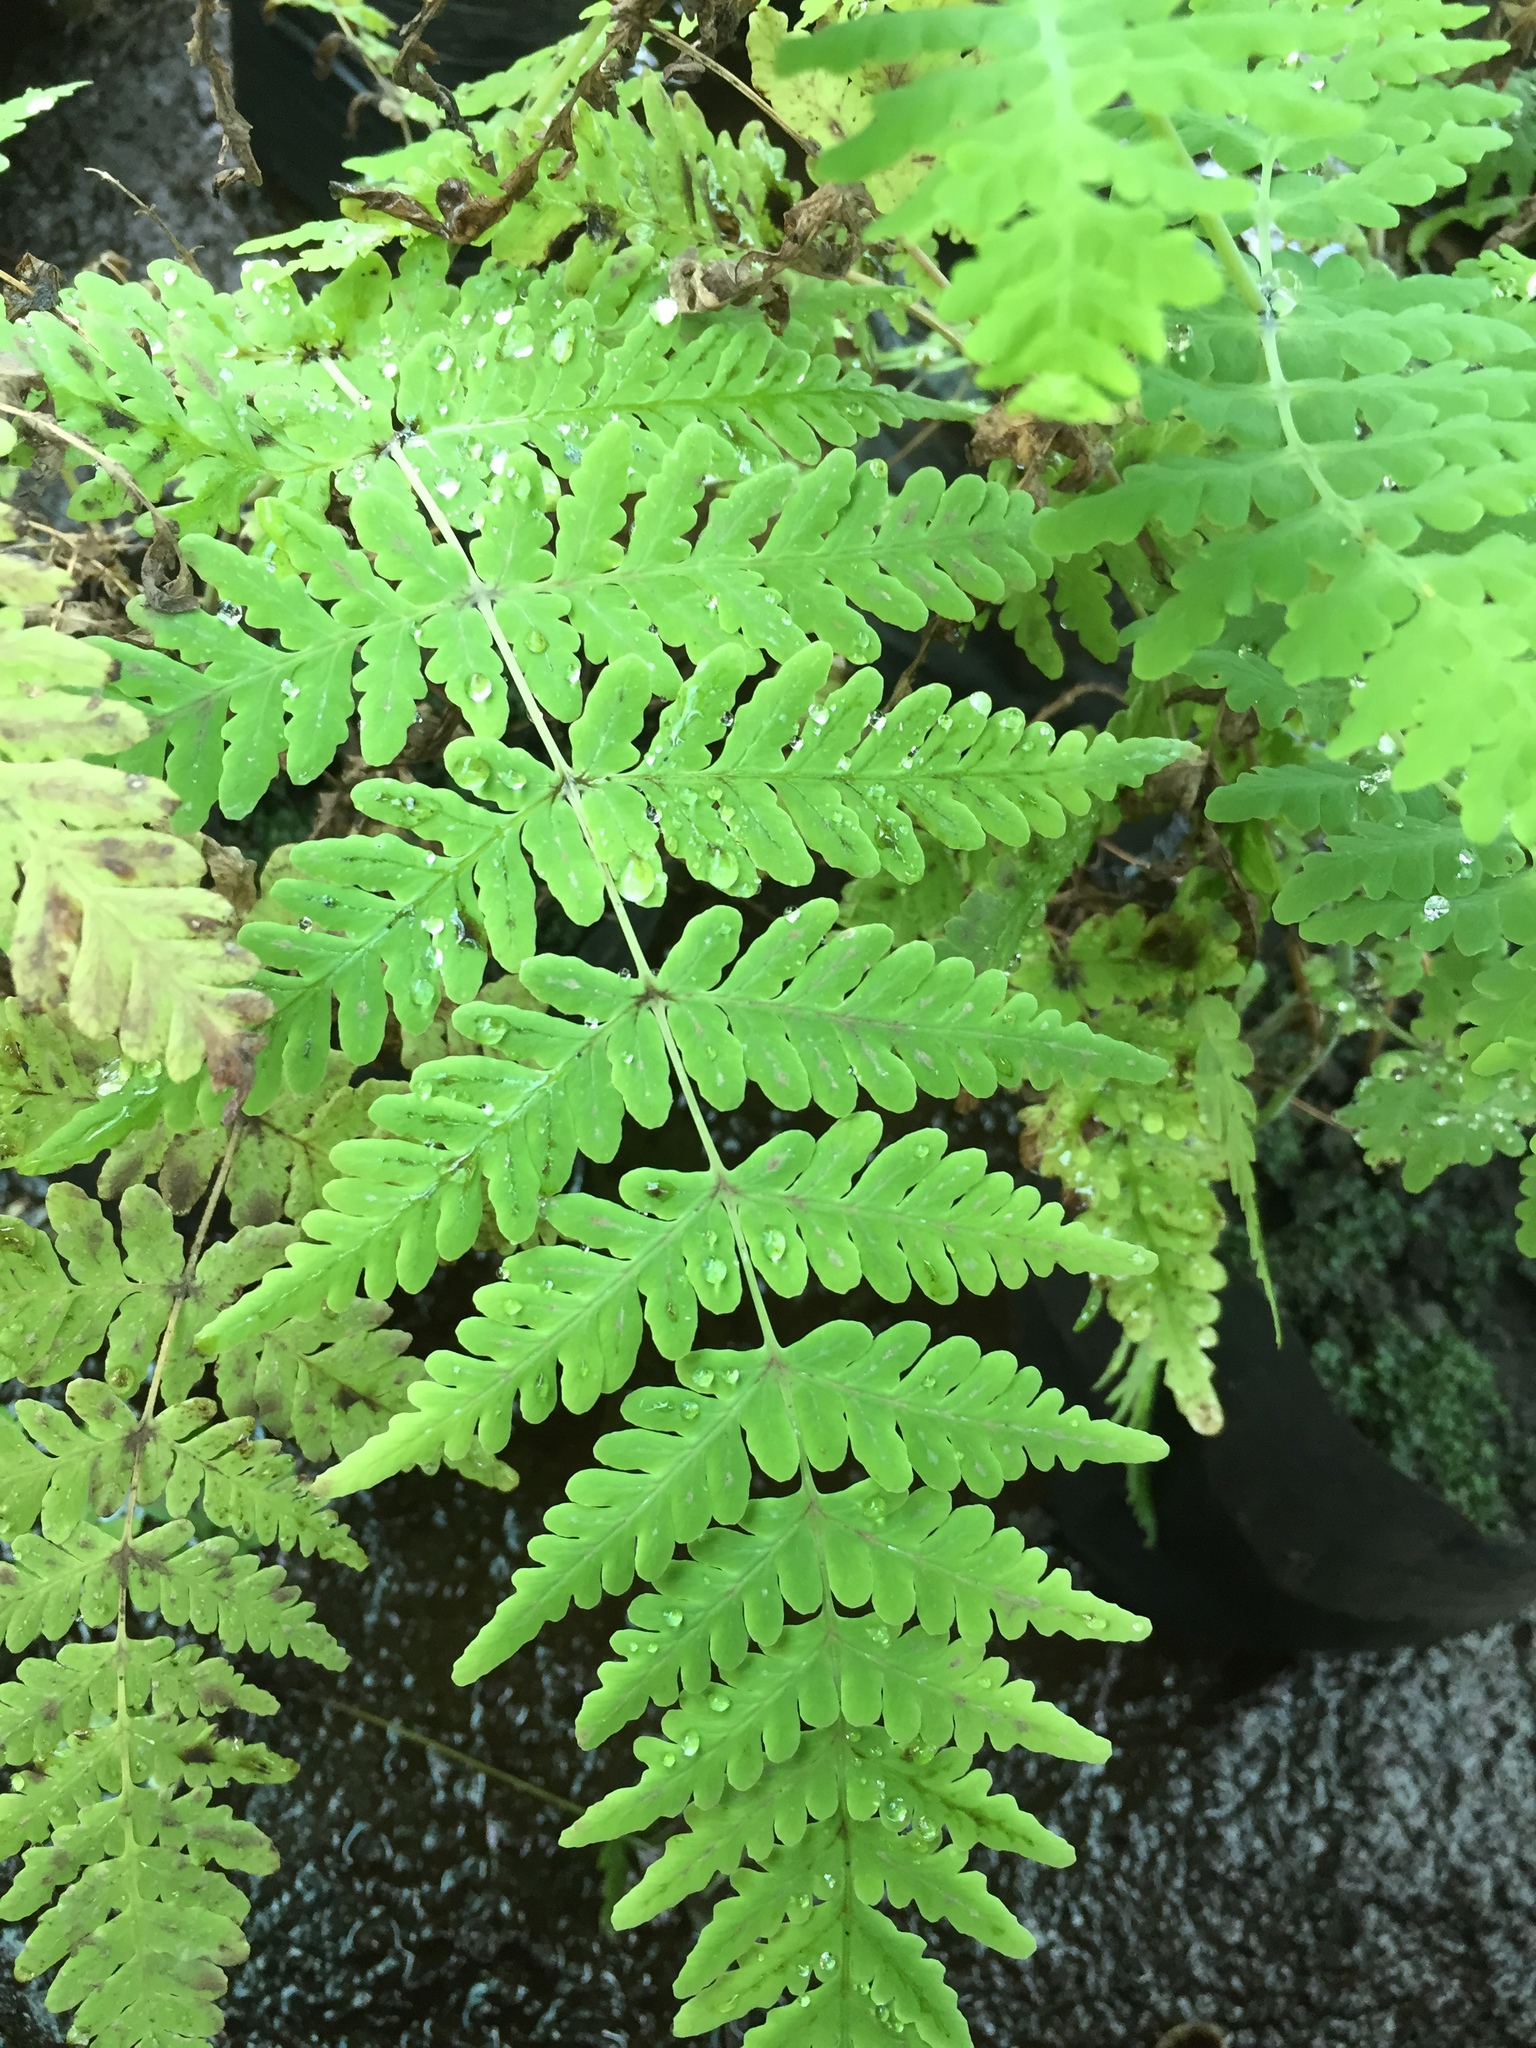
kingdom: Plantae
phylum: Tracheophyta
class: Polypodiopsida
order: Polypodiales
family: Dennstaedtiaceae
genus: Histiopteris
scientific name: Histiopteris incisa
